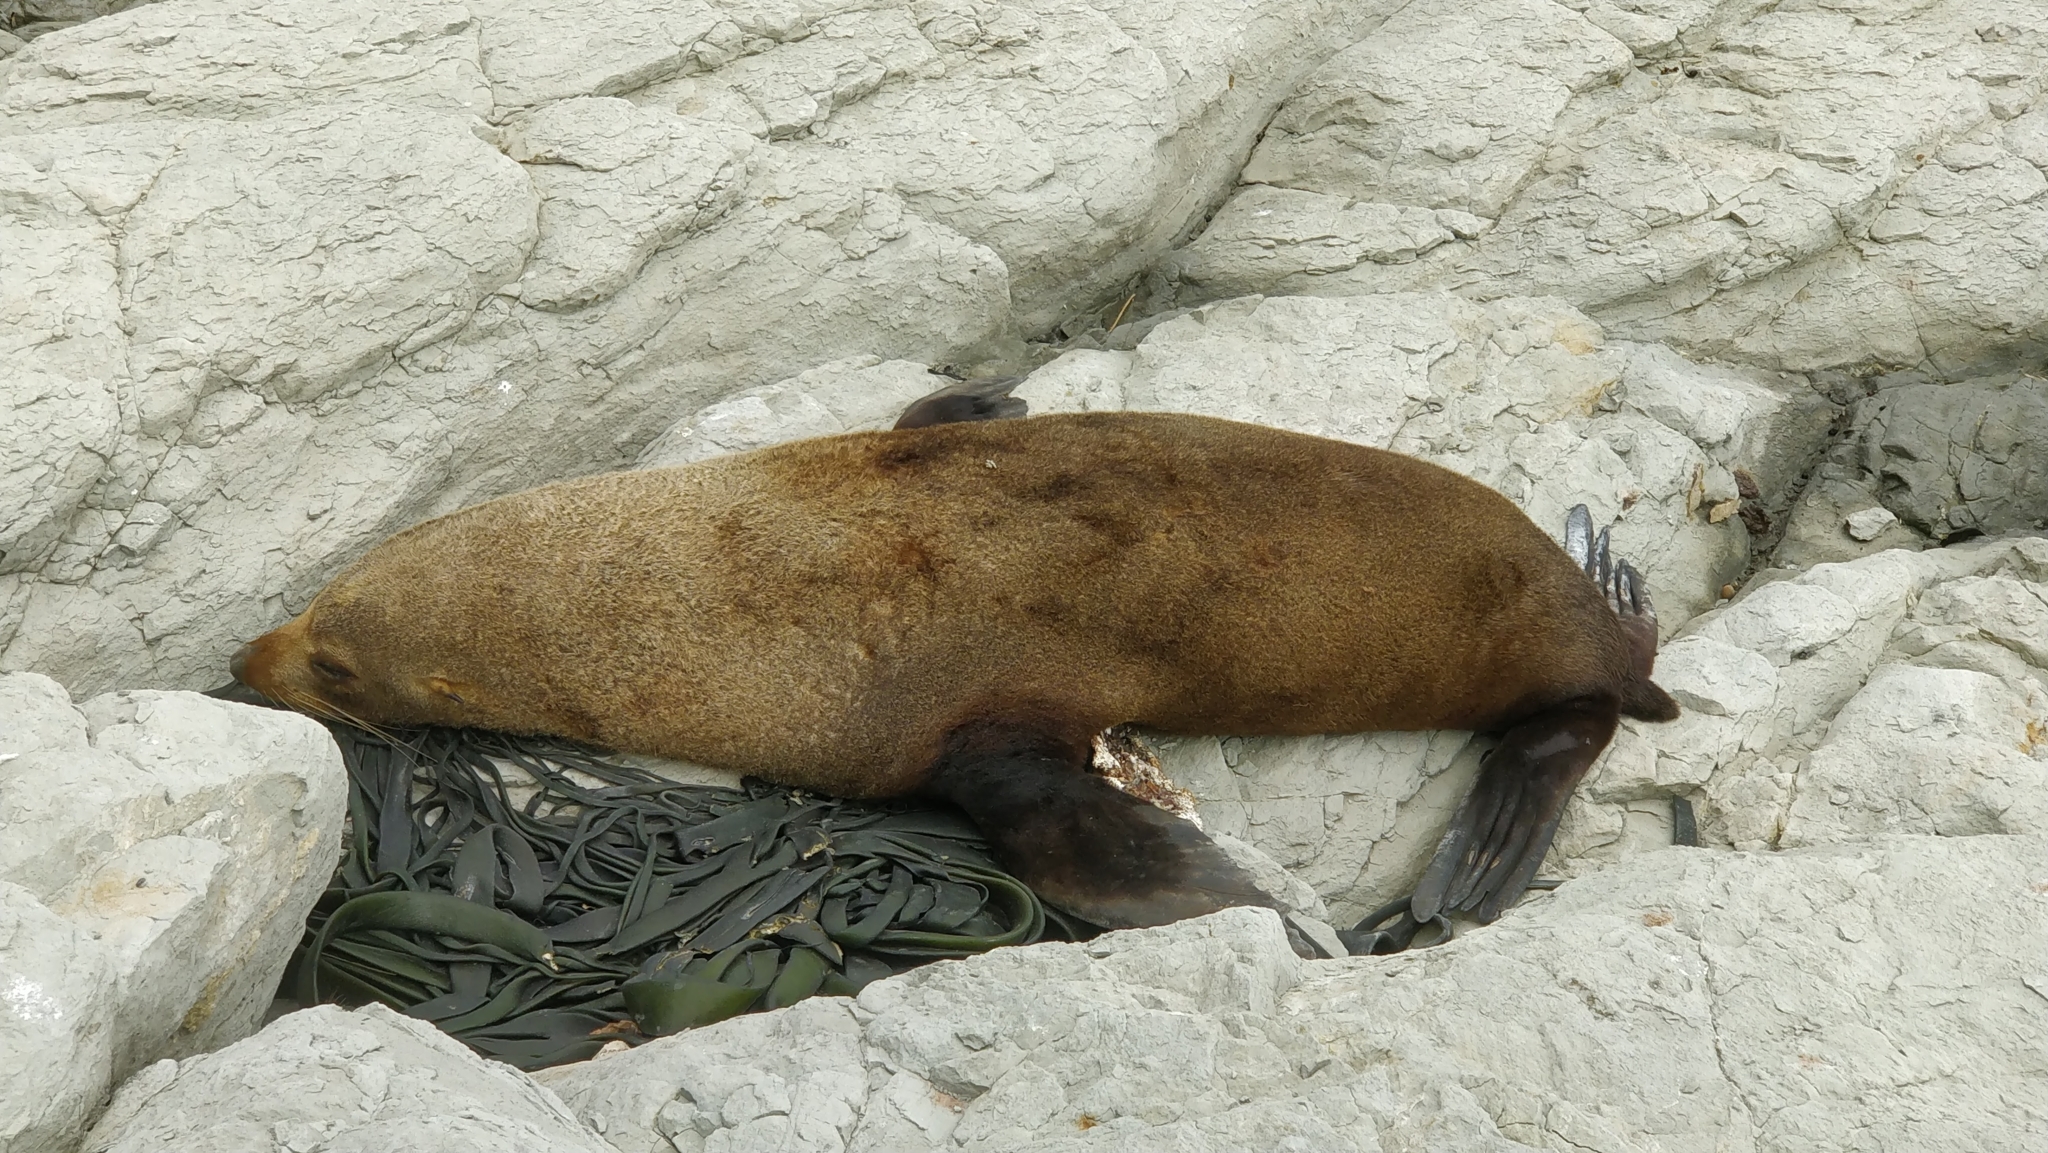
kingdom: Animalia
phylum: Chordata
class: Mammalia
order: Carnivora
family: Otariidae
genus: Arctocephalus
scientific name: Arctocephalus forsteri
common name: New zealand fur seal
